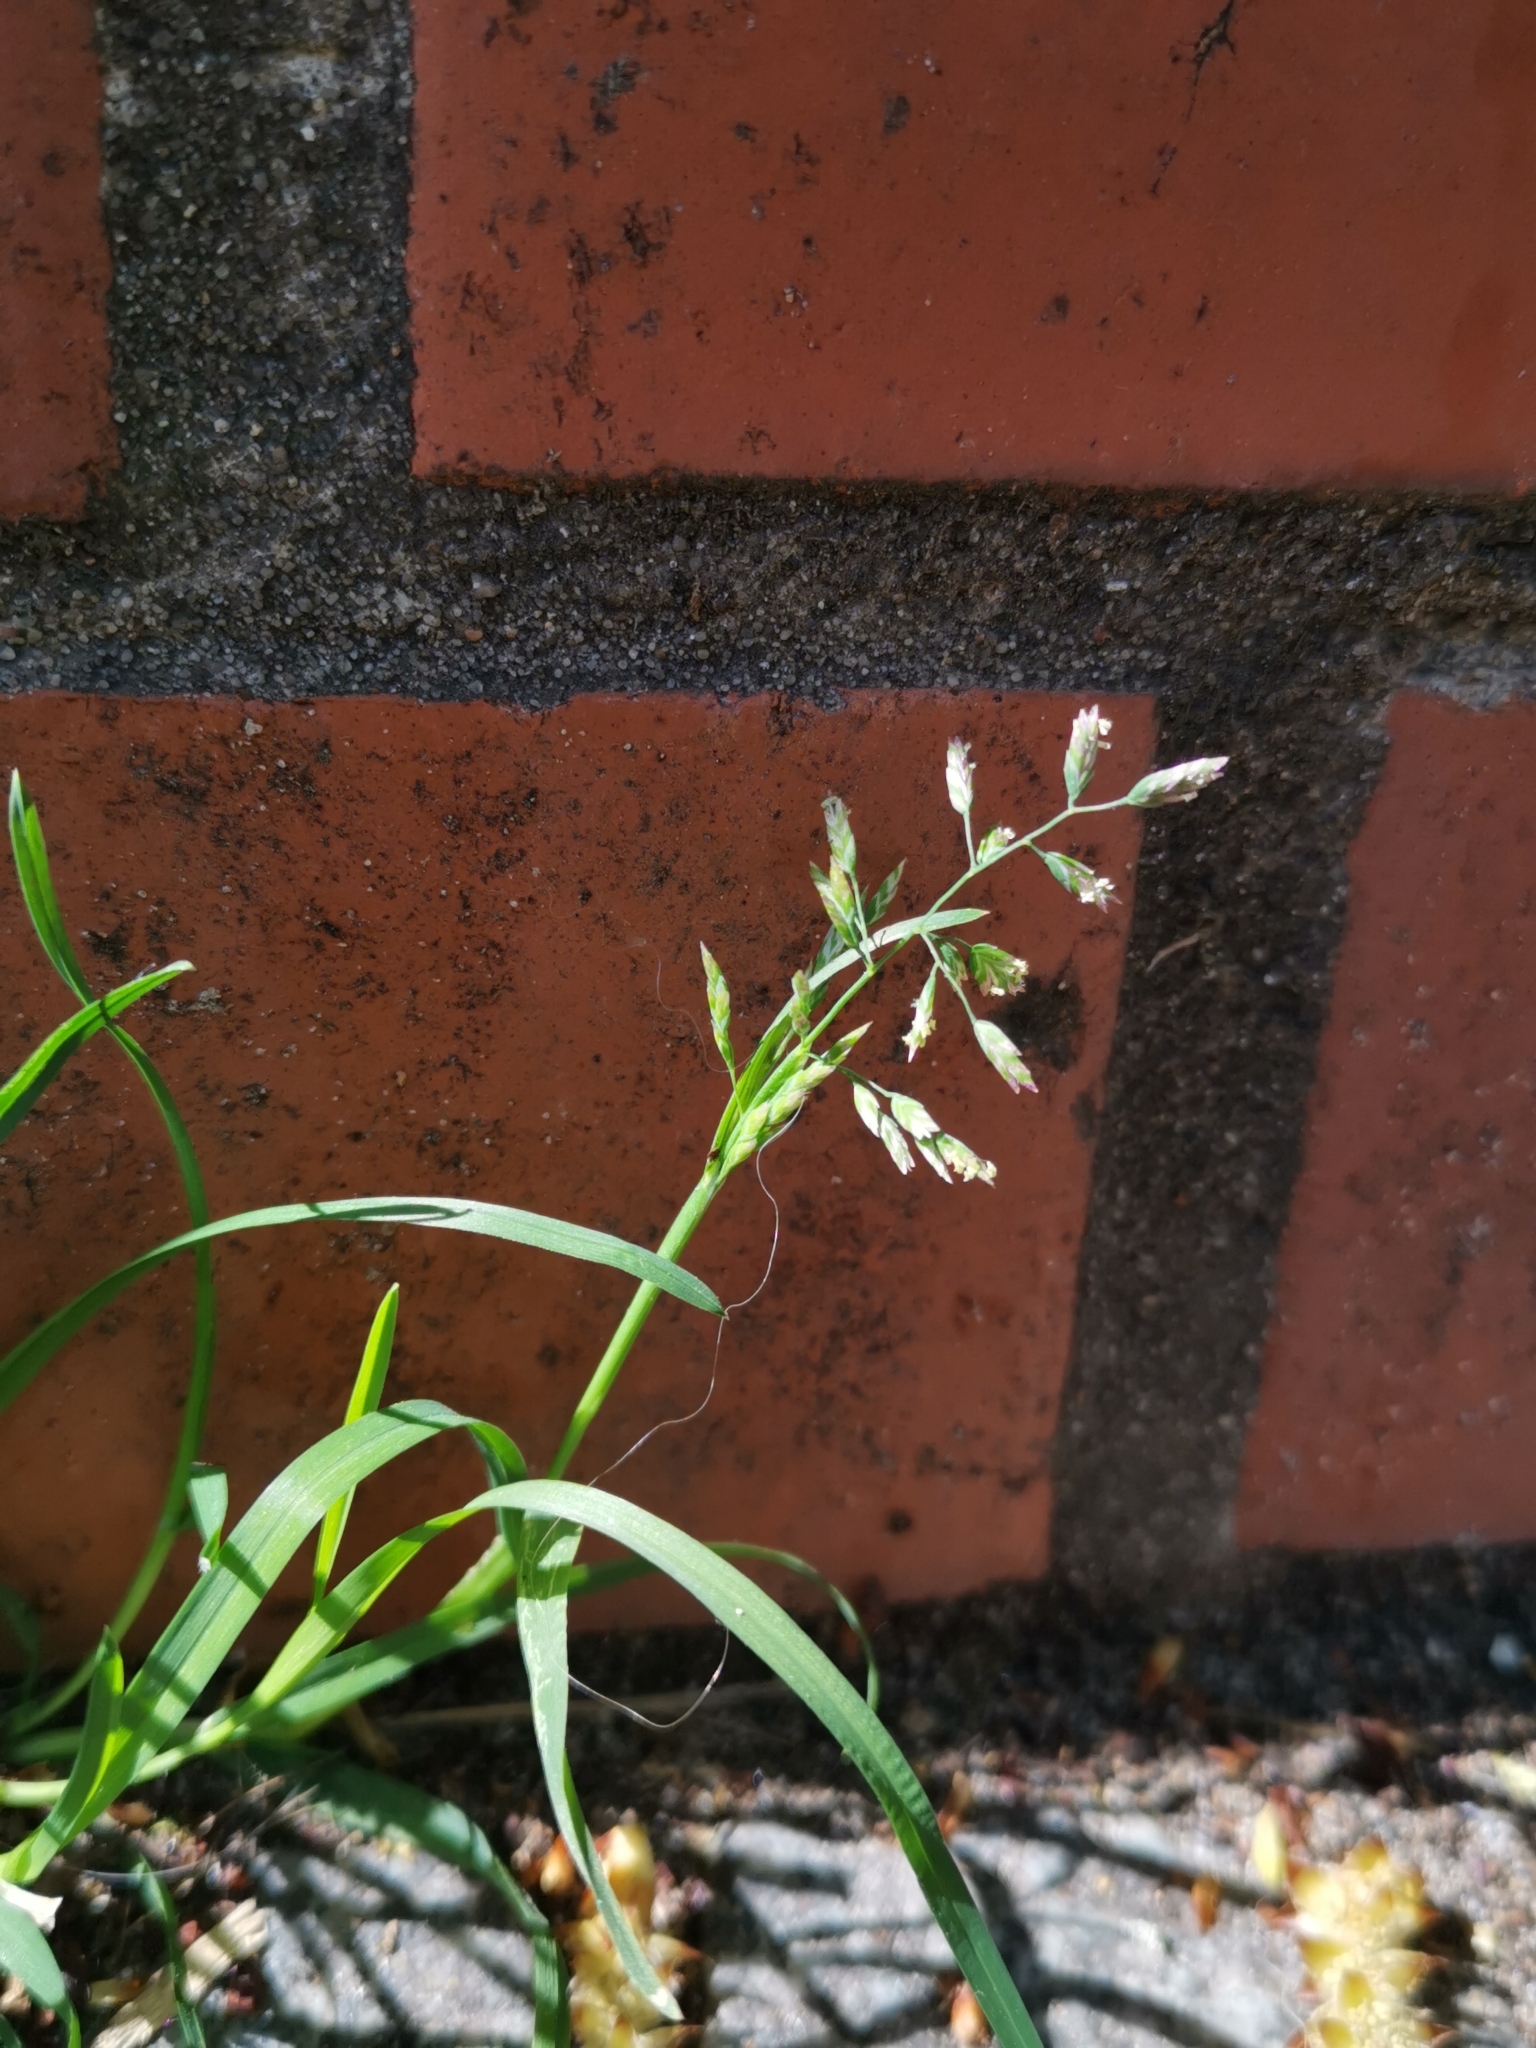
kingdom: Plantae
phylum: Tracheophyta
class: Liliopsida
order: Poales
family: Poaceae
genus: Poa
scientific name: Poa annua
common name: Annual bluegrass
